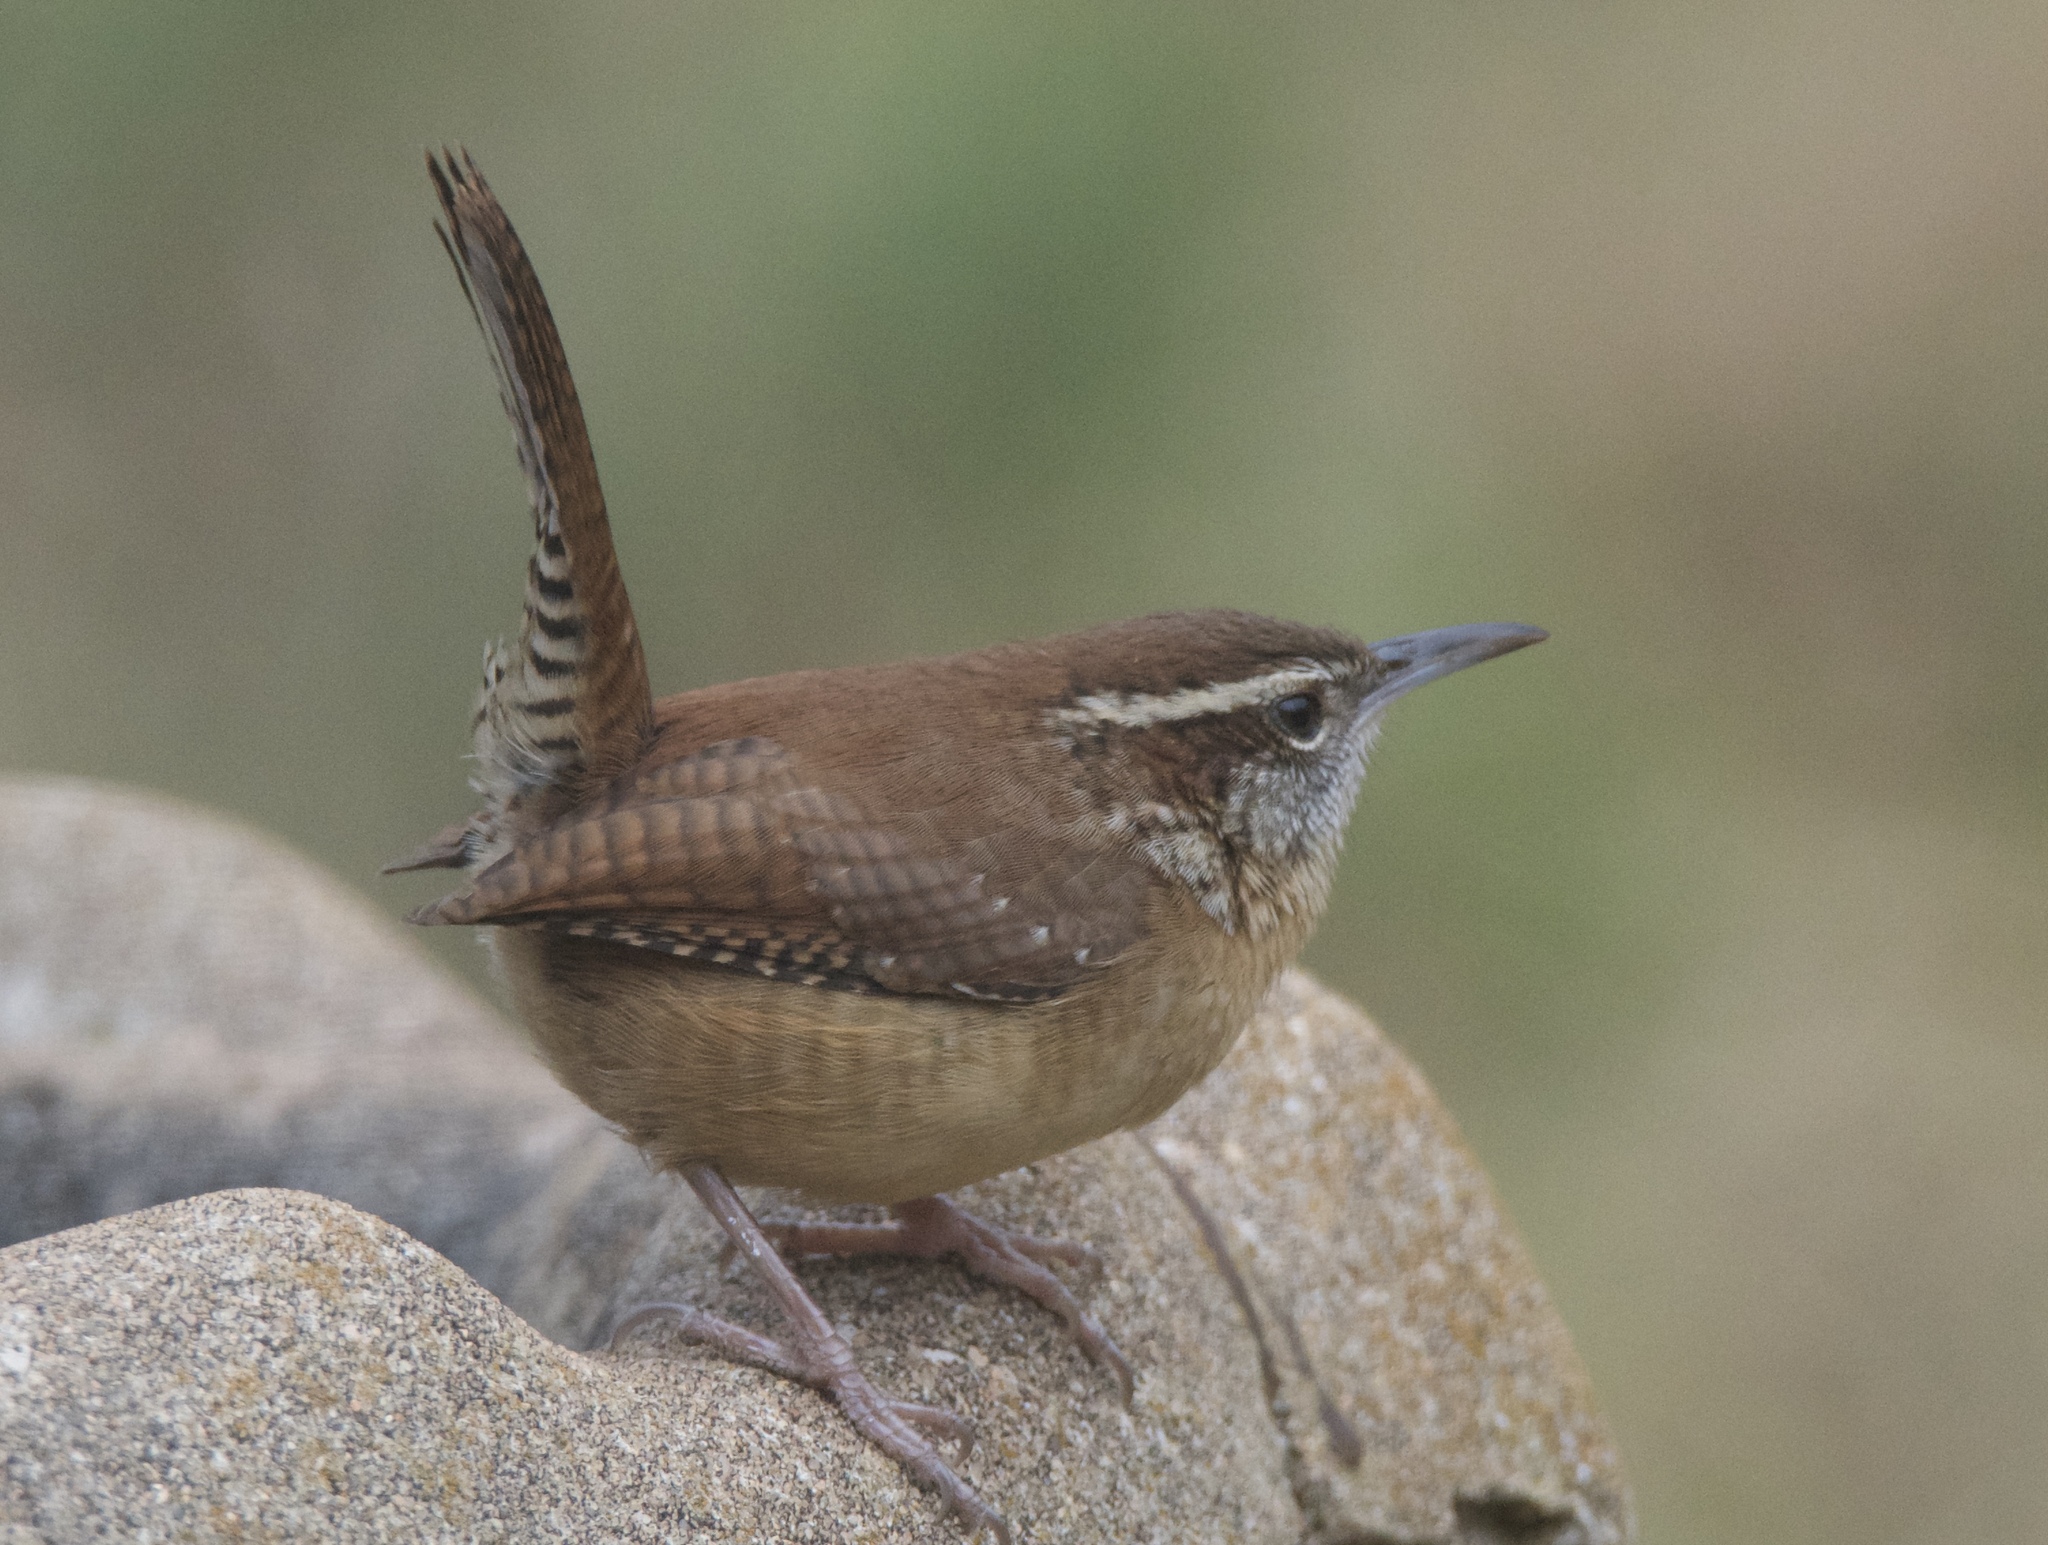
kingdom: Animalia
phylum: Chordata
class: Aves
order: Passeriformes
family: Troglodytidae
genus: Thryothorus
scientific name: Thryothorus ludovicianus
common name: Carolina wren
